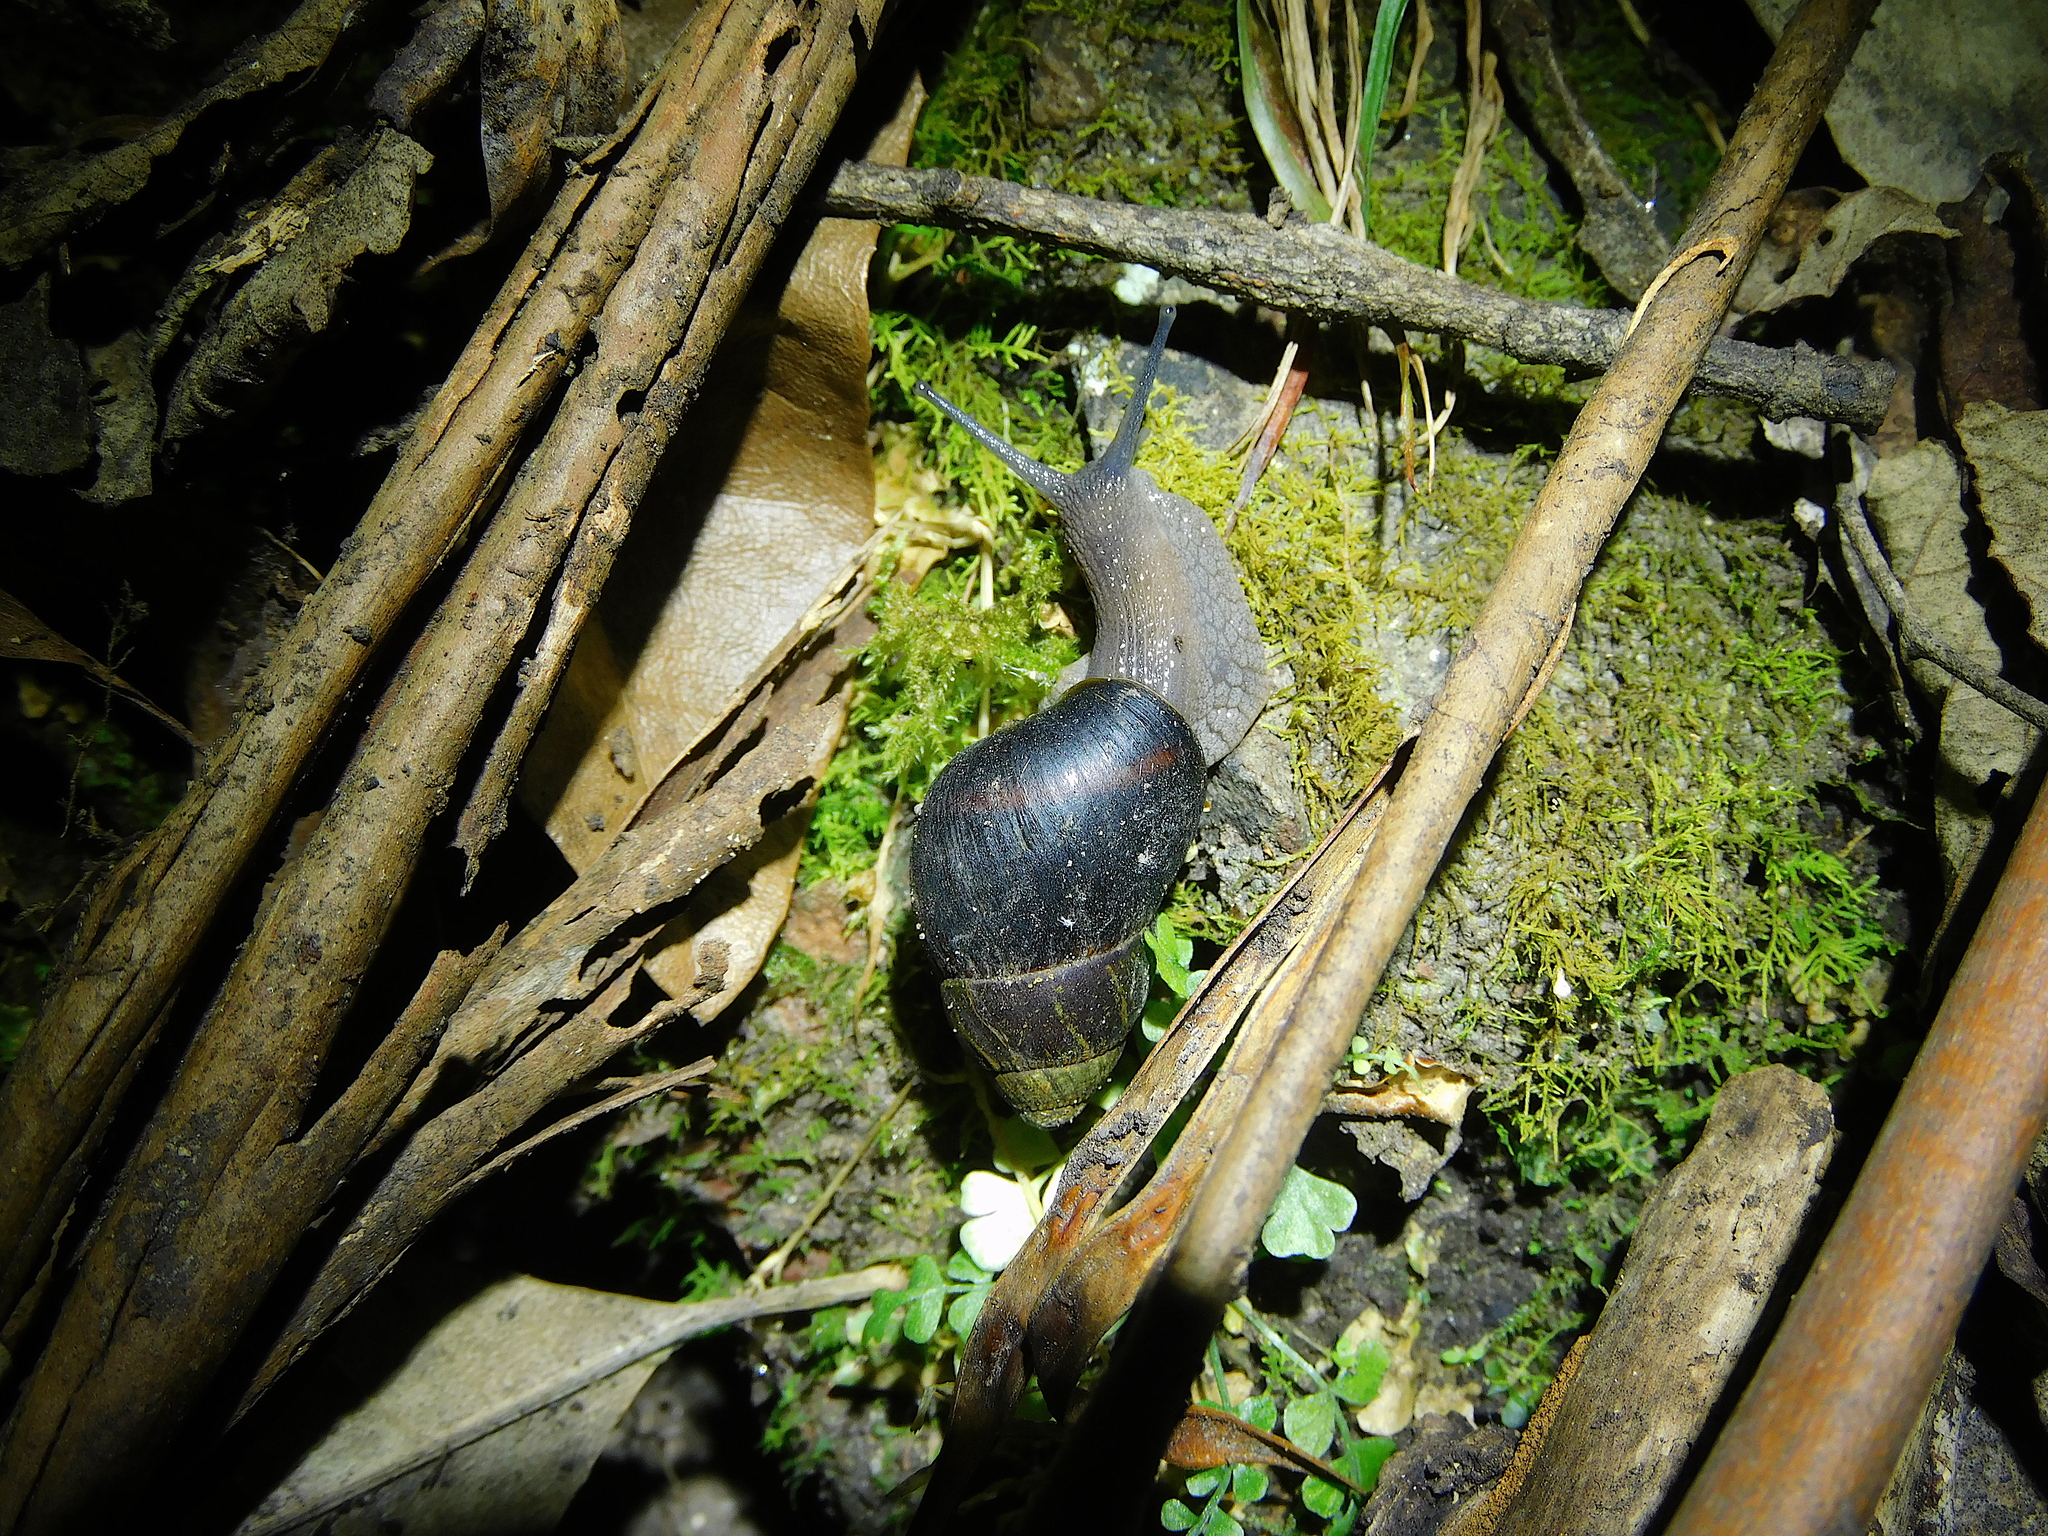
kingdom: Animalia
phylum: Mollusca
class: Gastropoda
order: Stylommatophora
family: Caryodidae
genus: Caryodes
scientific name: Caryodes dufresnii
